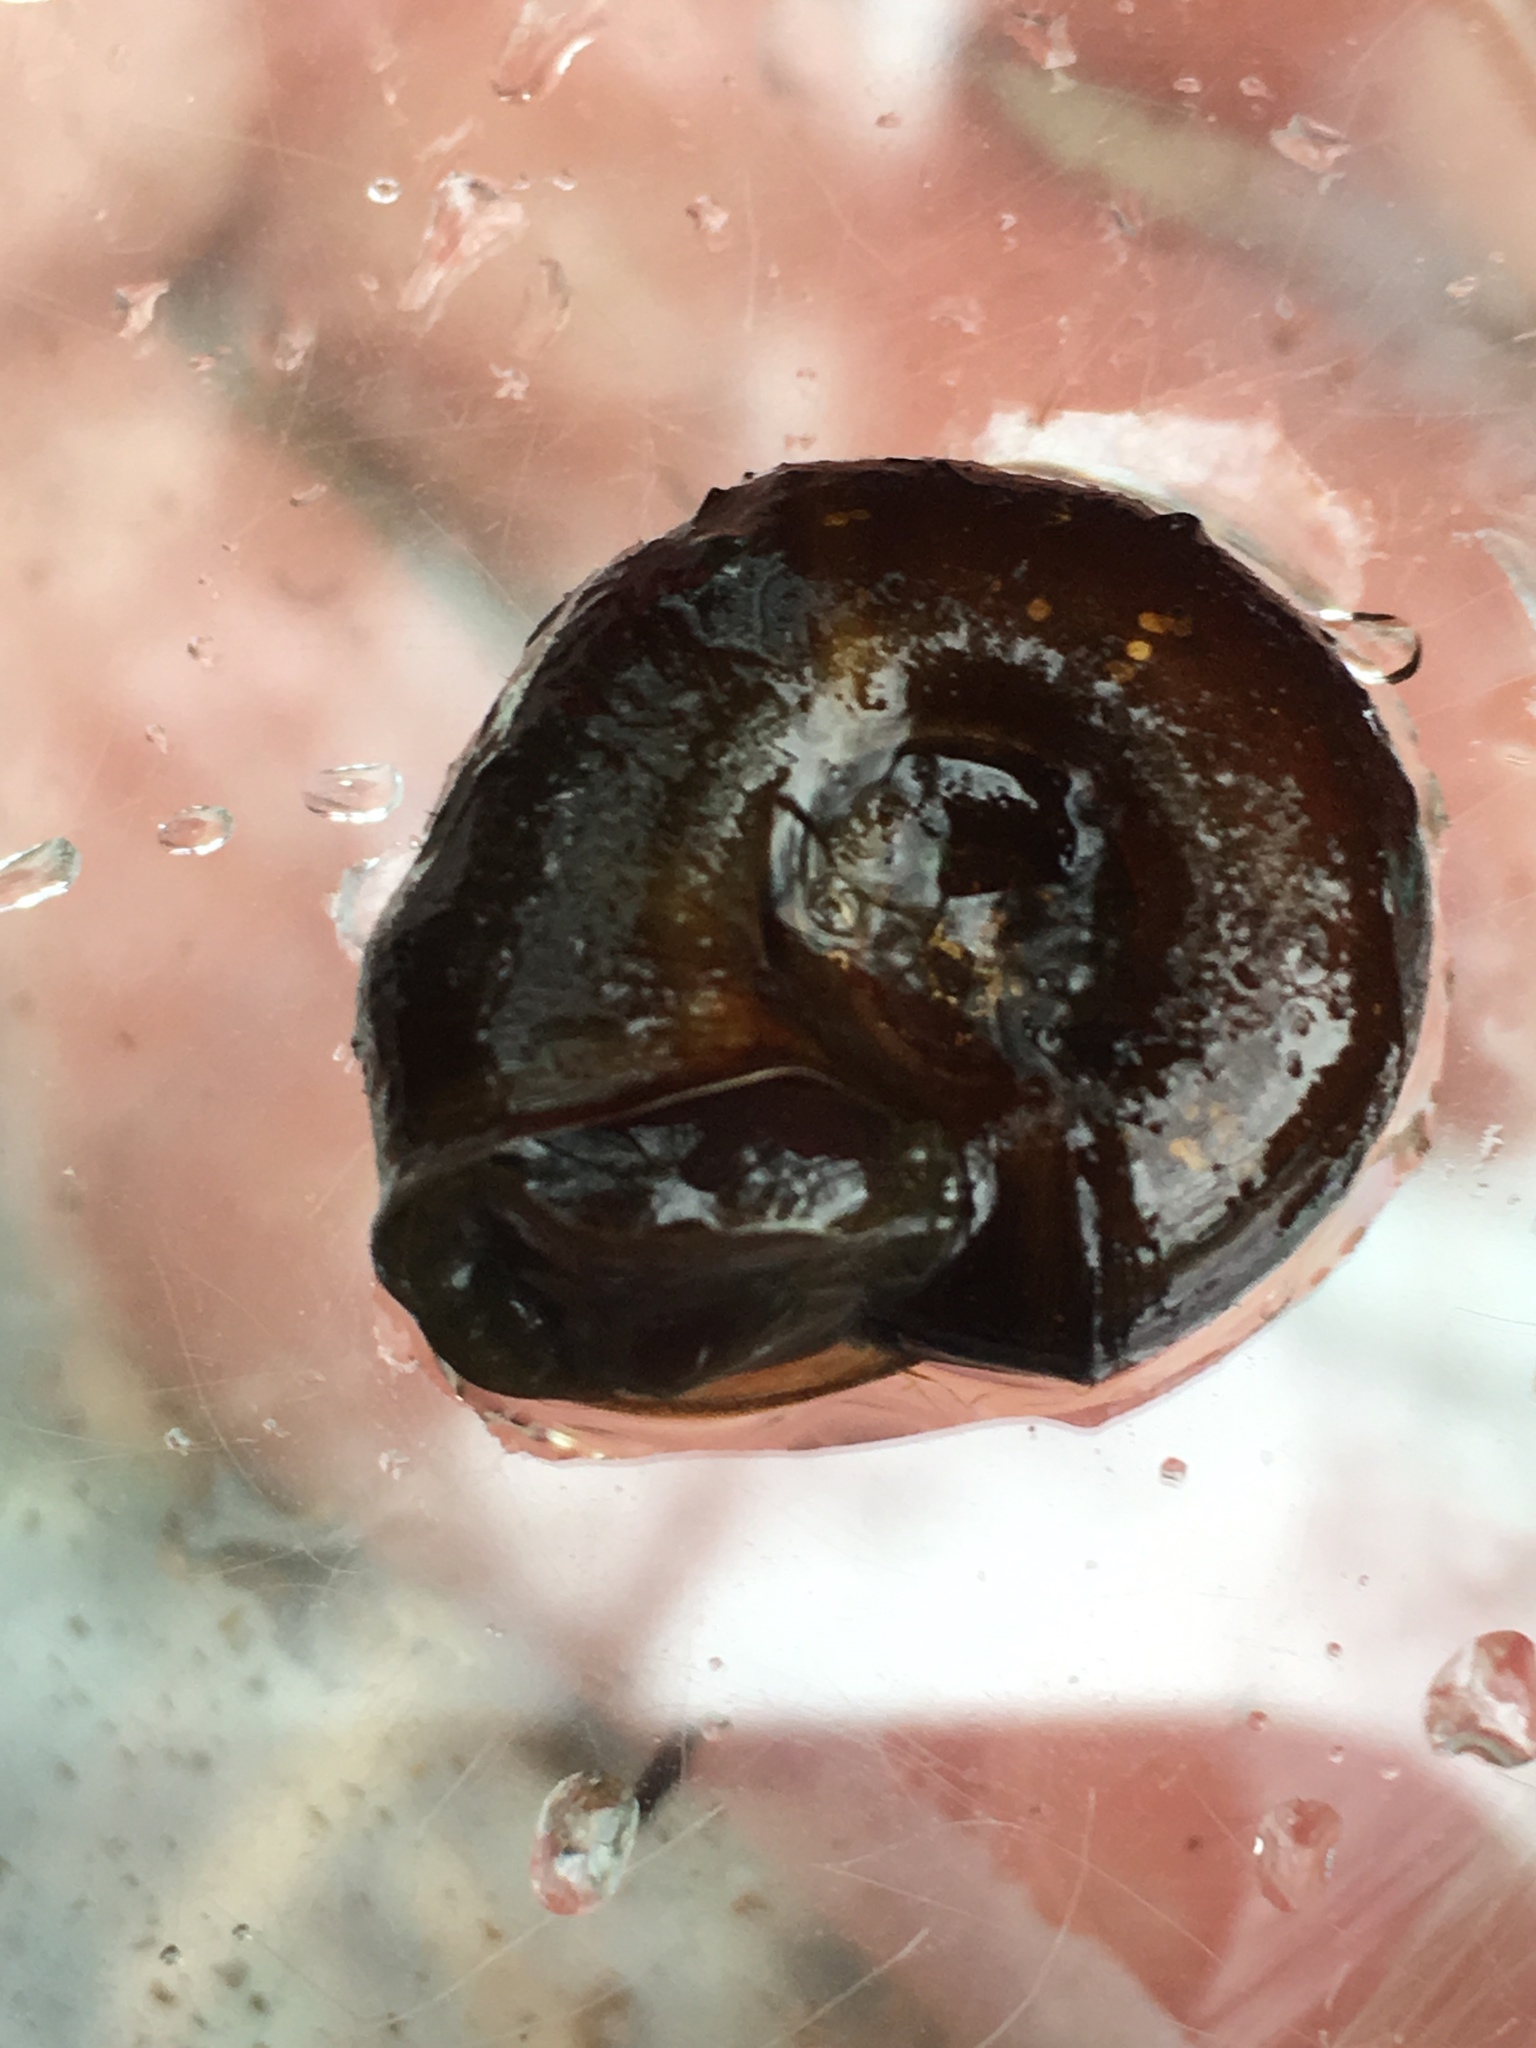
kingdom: Animalia
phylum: Mollusca
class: Gastropoda
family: Planorbidae
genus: Planorbella
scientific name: Planorbella trivolvis
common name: Marsh rams-horn
